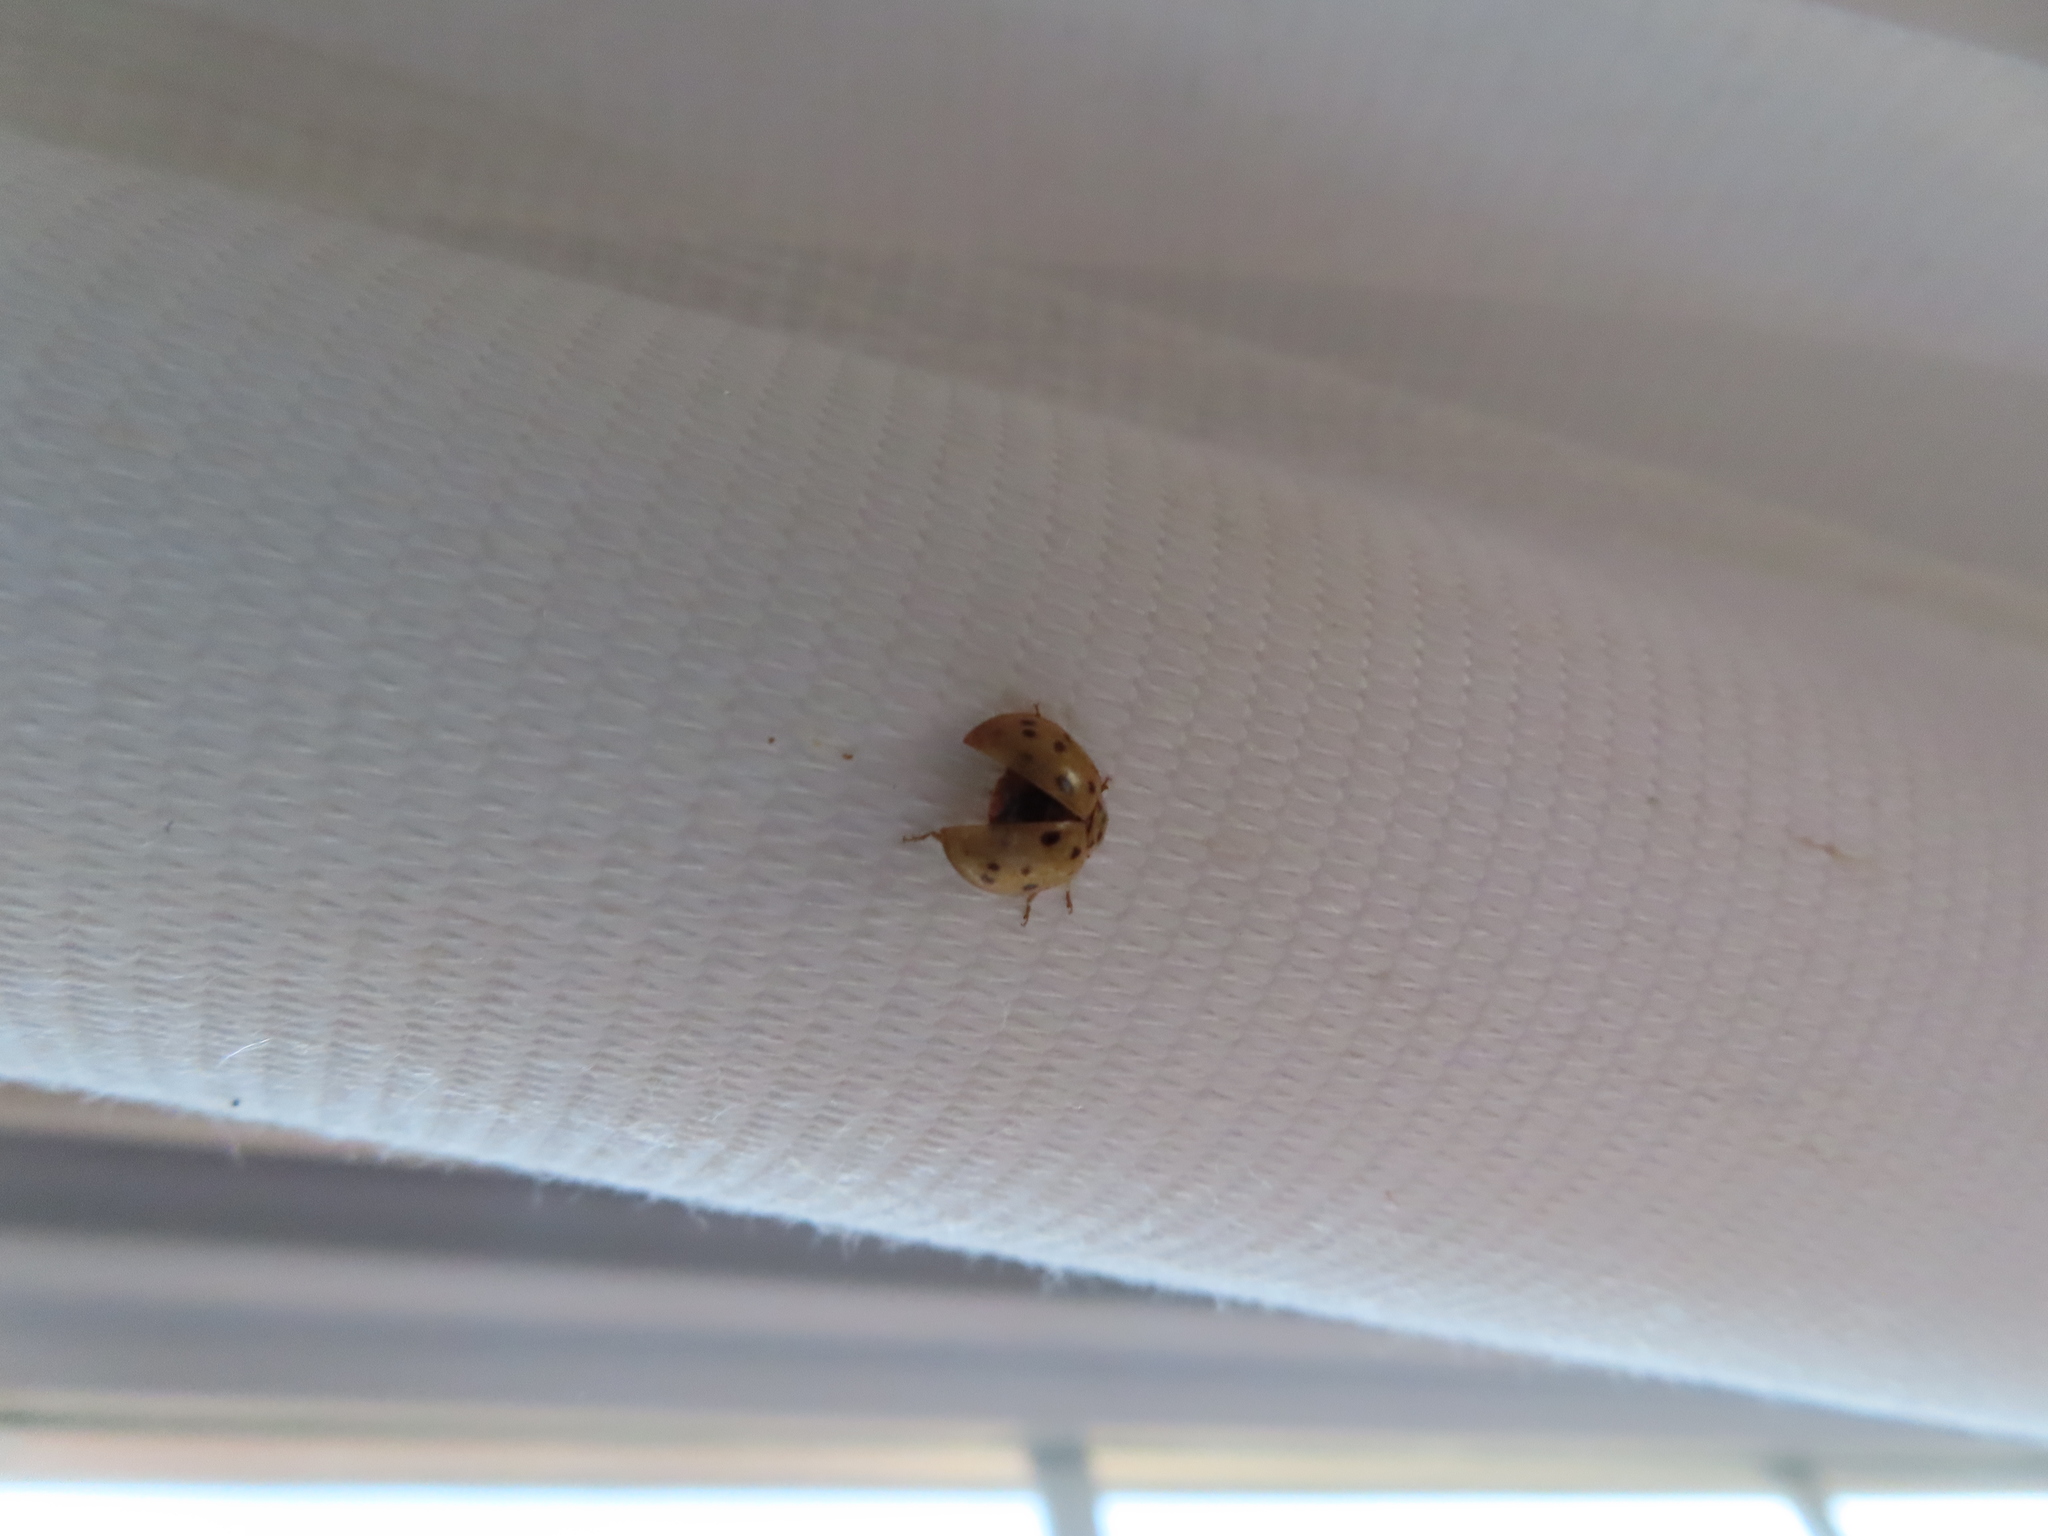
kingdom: Animalia
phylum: Arthropoda
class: Insecta
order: Coleoptera
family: Coccinellidae
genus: Harmonia
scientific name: Harmonia axyridis
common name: Harlequin ladybird
